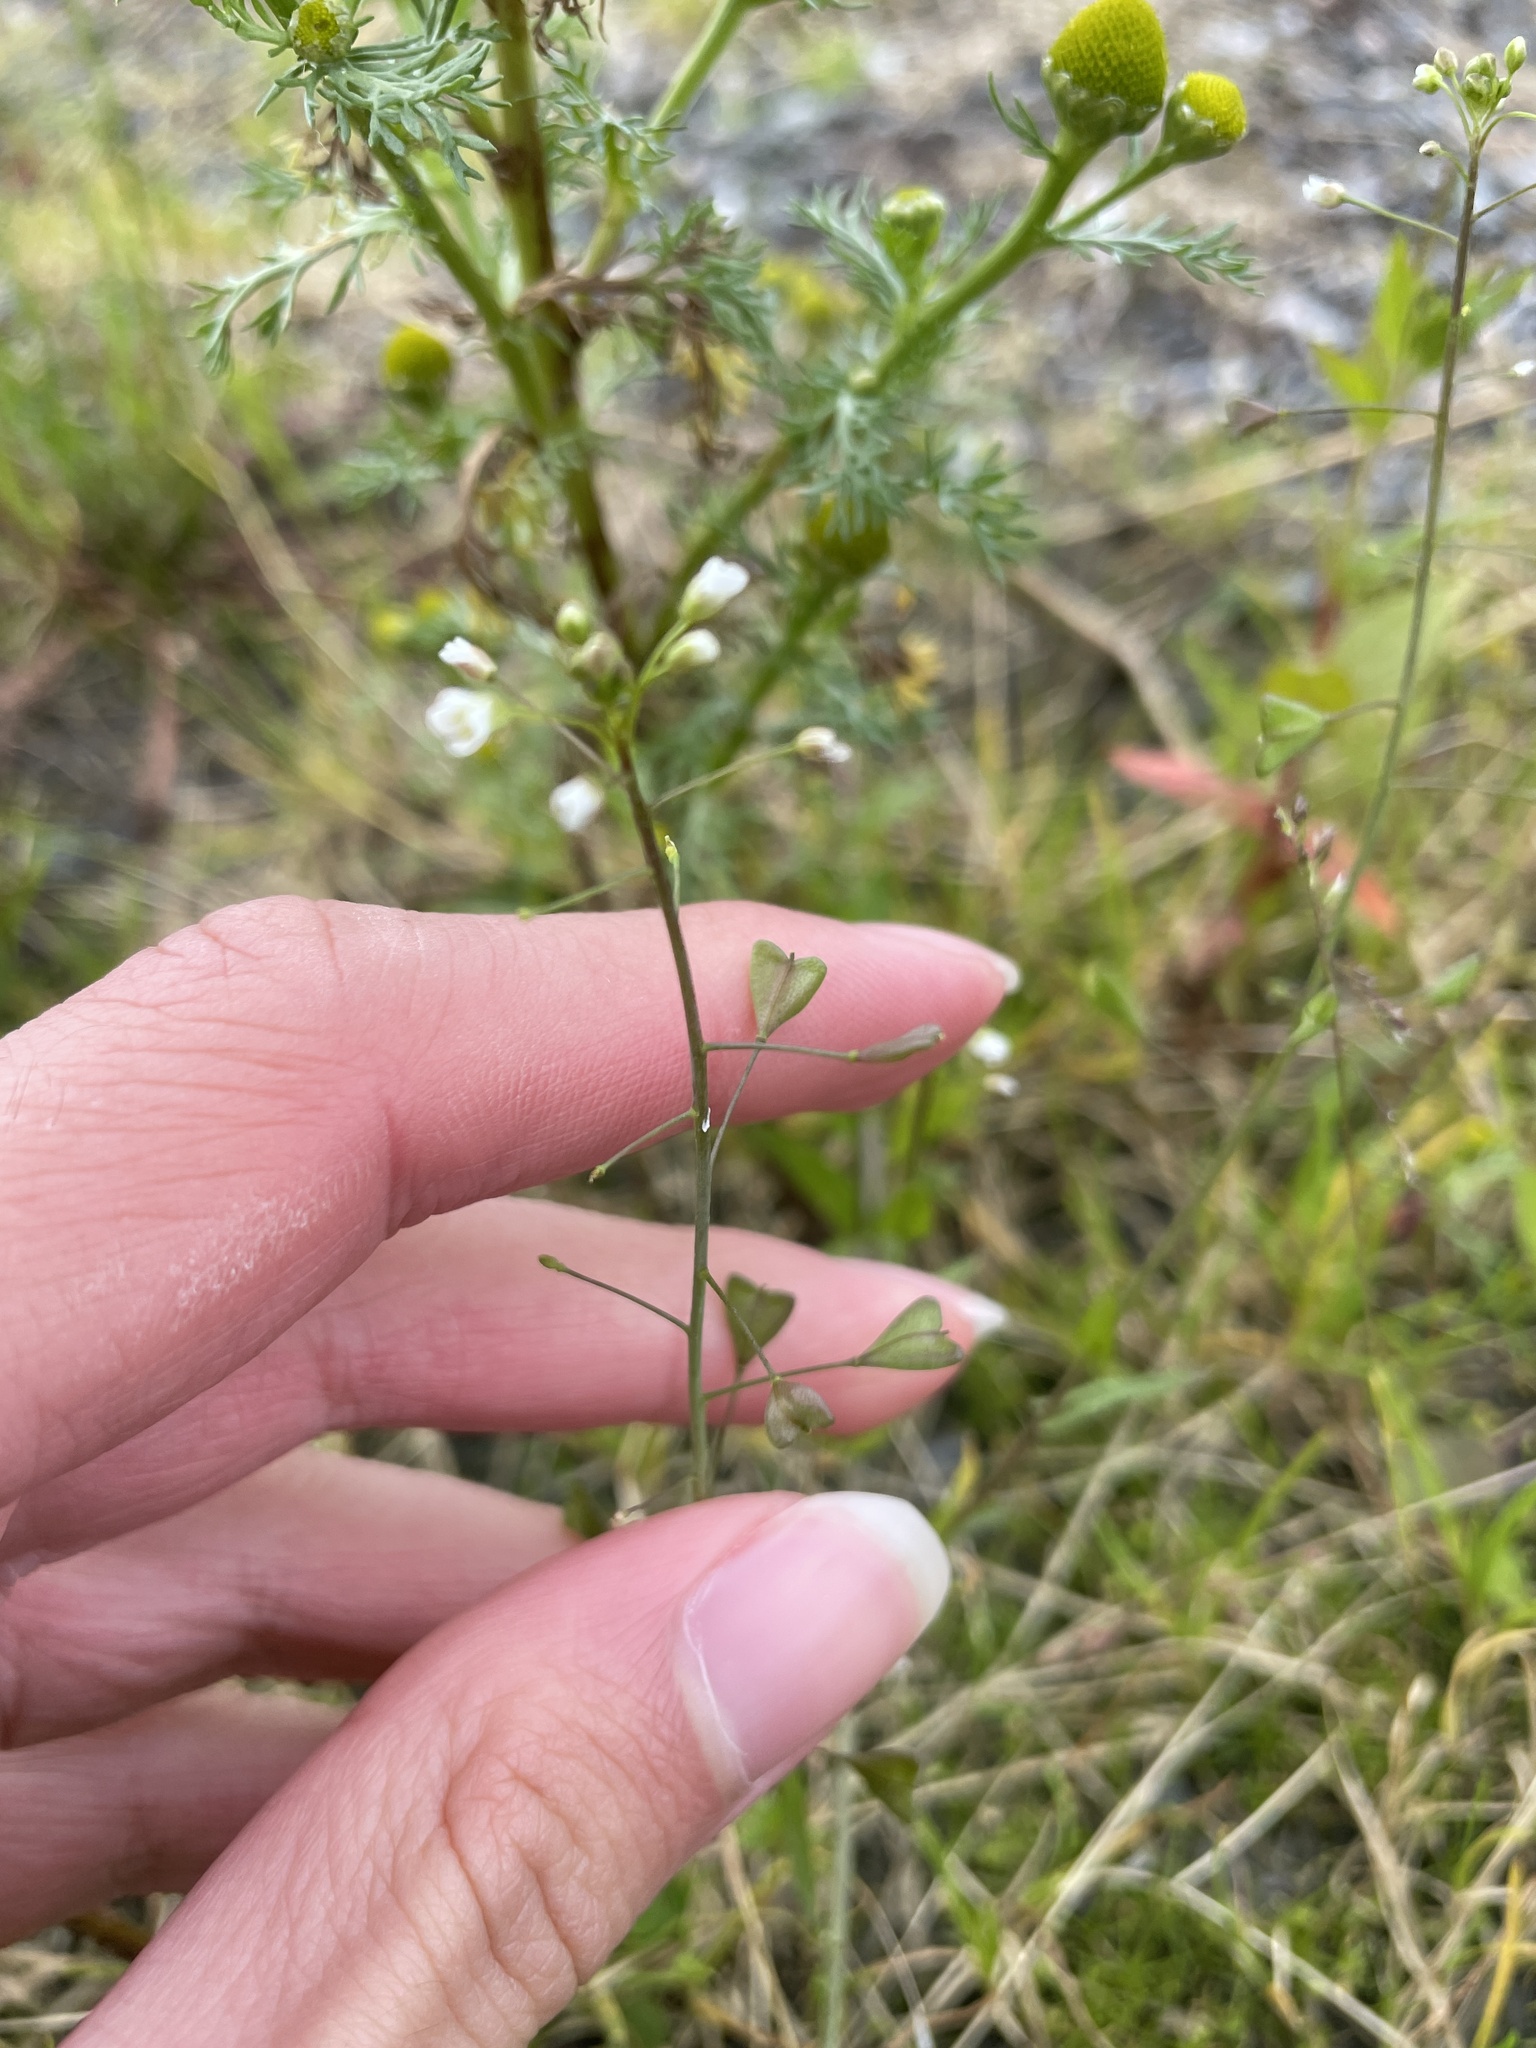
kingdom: Plantae
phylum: Tracheophyta
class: Magnoliopsida
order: Brassicales
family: Brassicaceae
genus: Capsella
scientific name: Capsella bursa-pastoris
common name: Shepherd's purse
